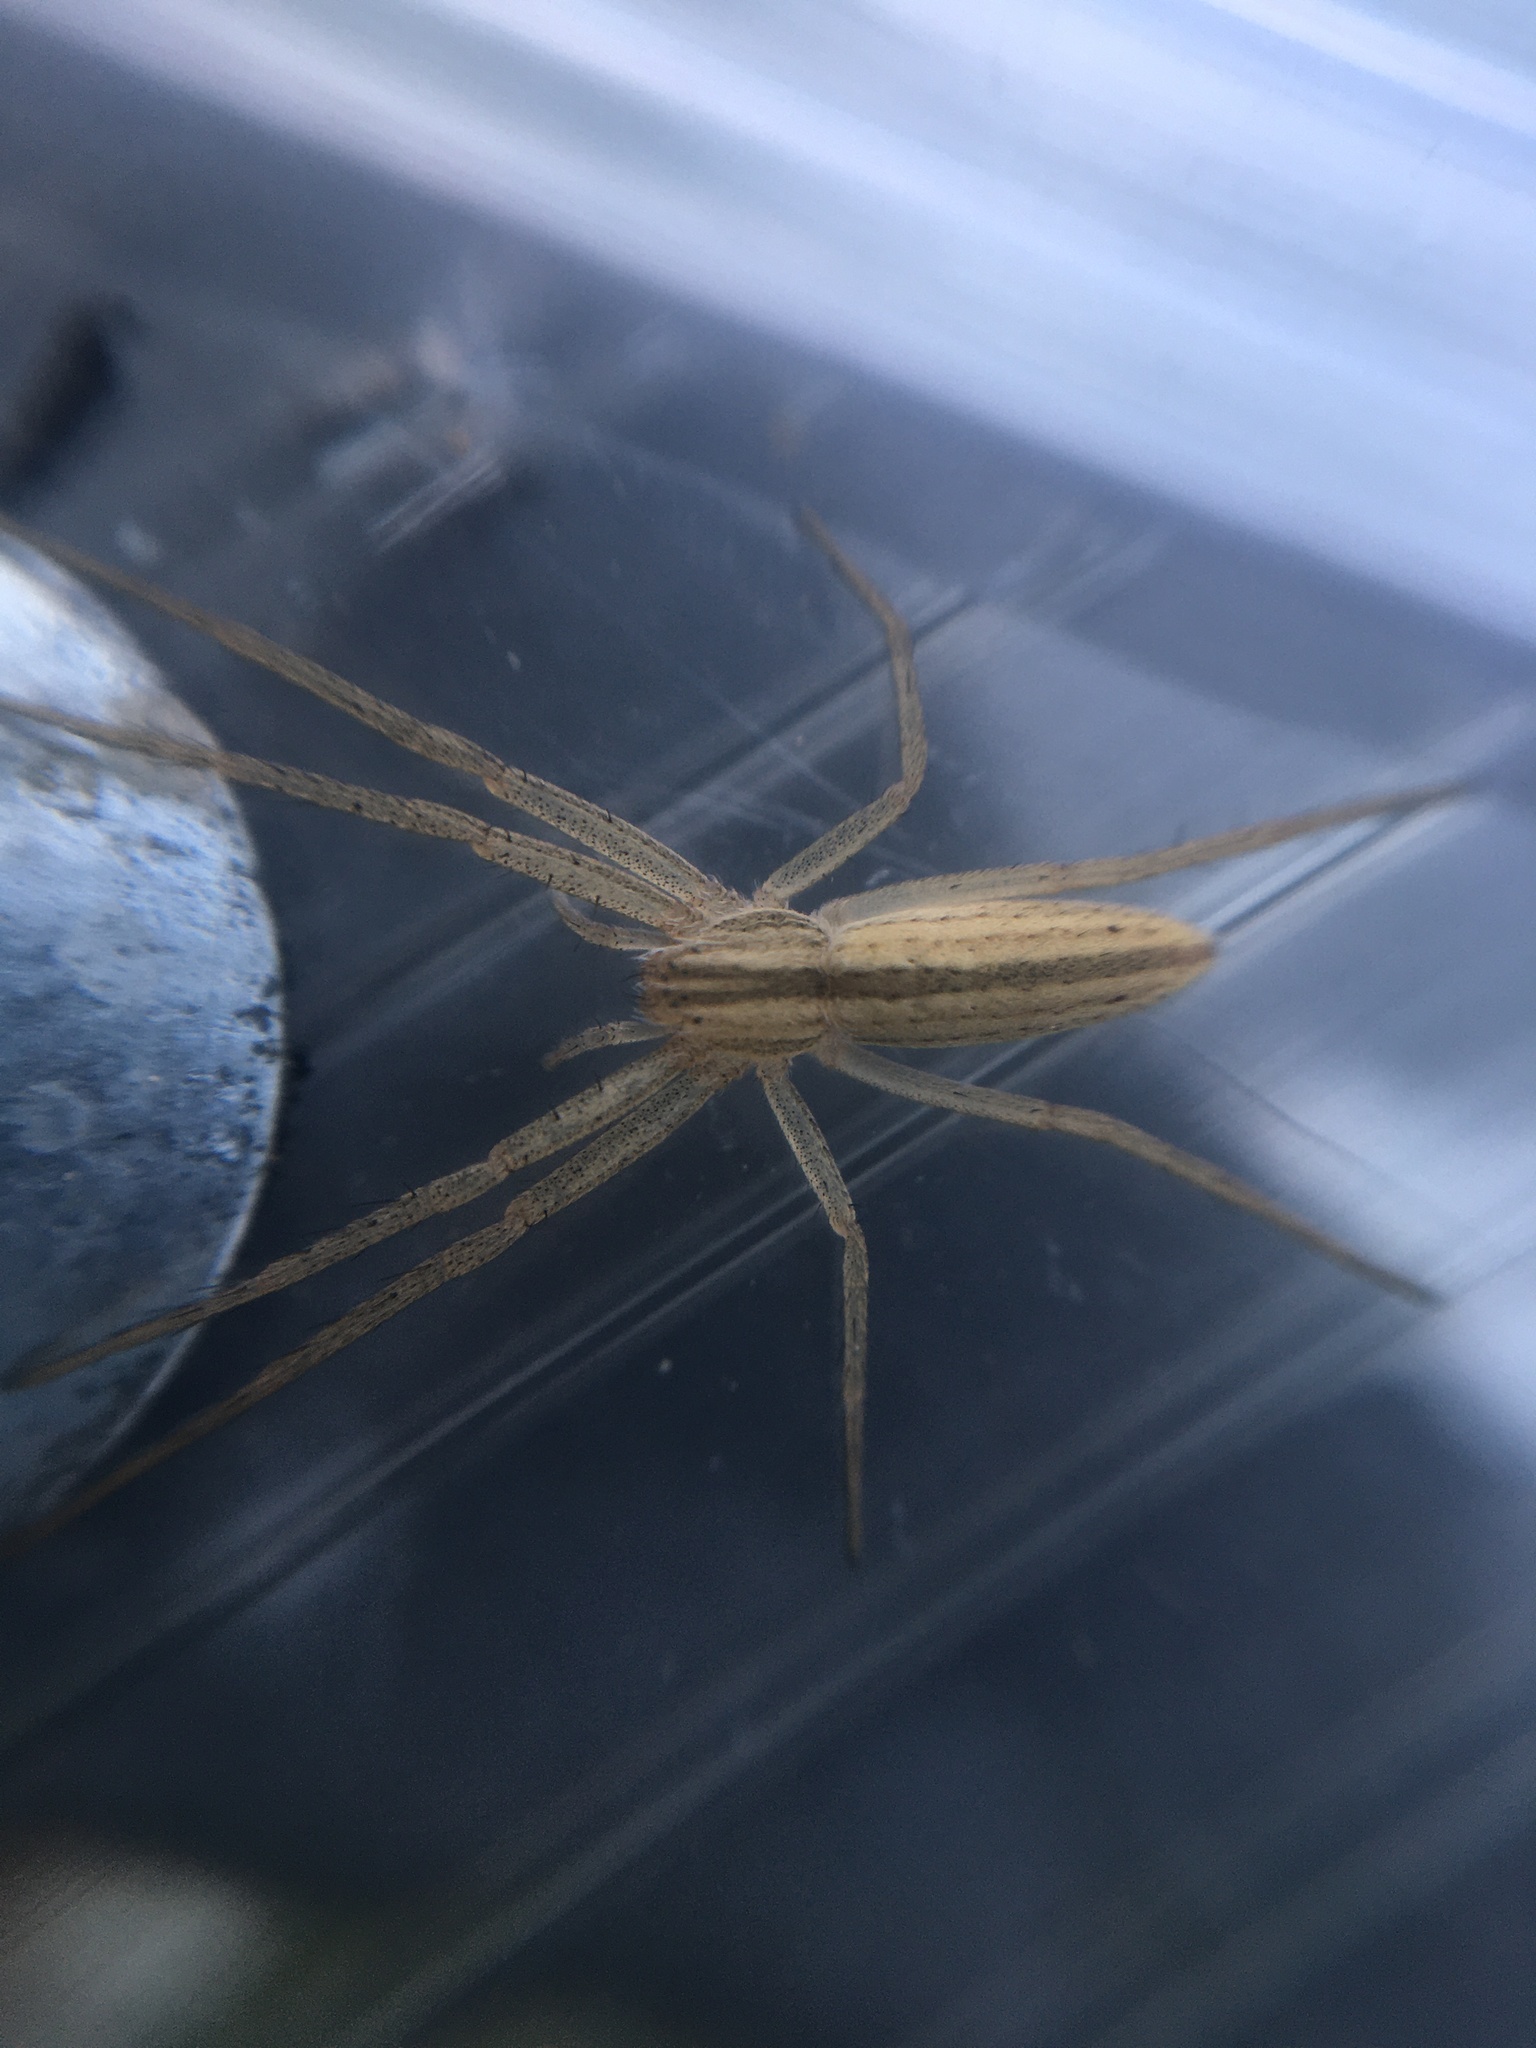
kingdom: Animalia
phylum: Arthropoda
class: Arachnida
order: Araneae
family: Philodromidae
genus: Tibellus
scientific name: Tibellus
